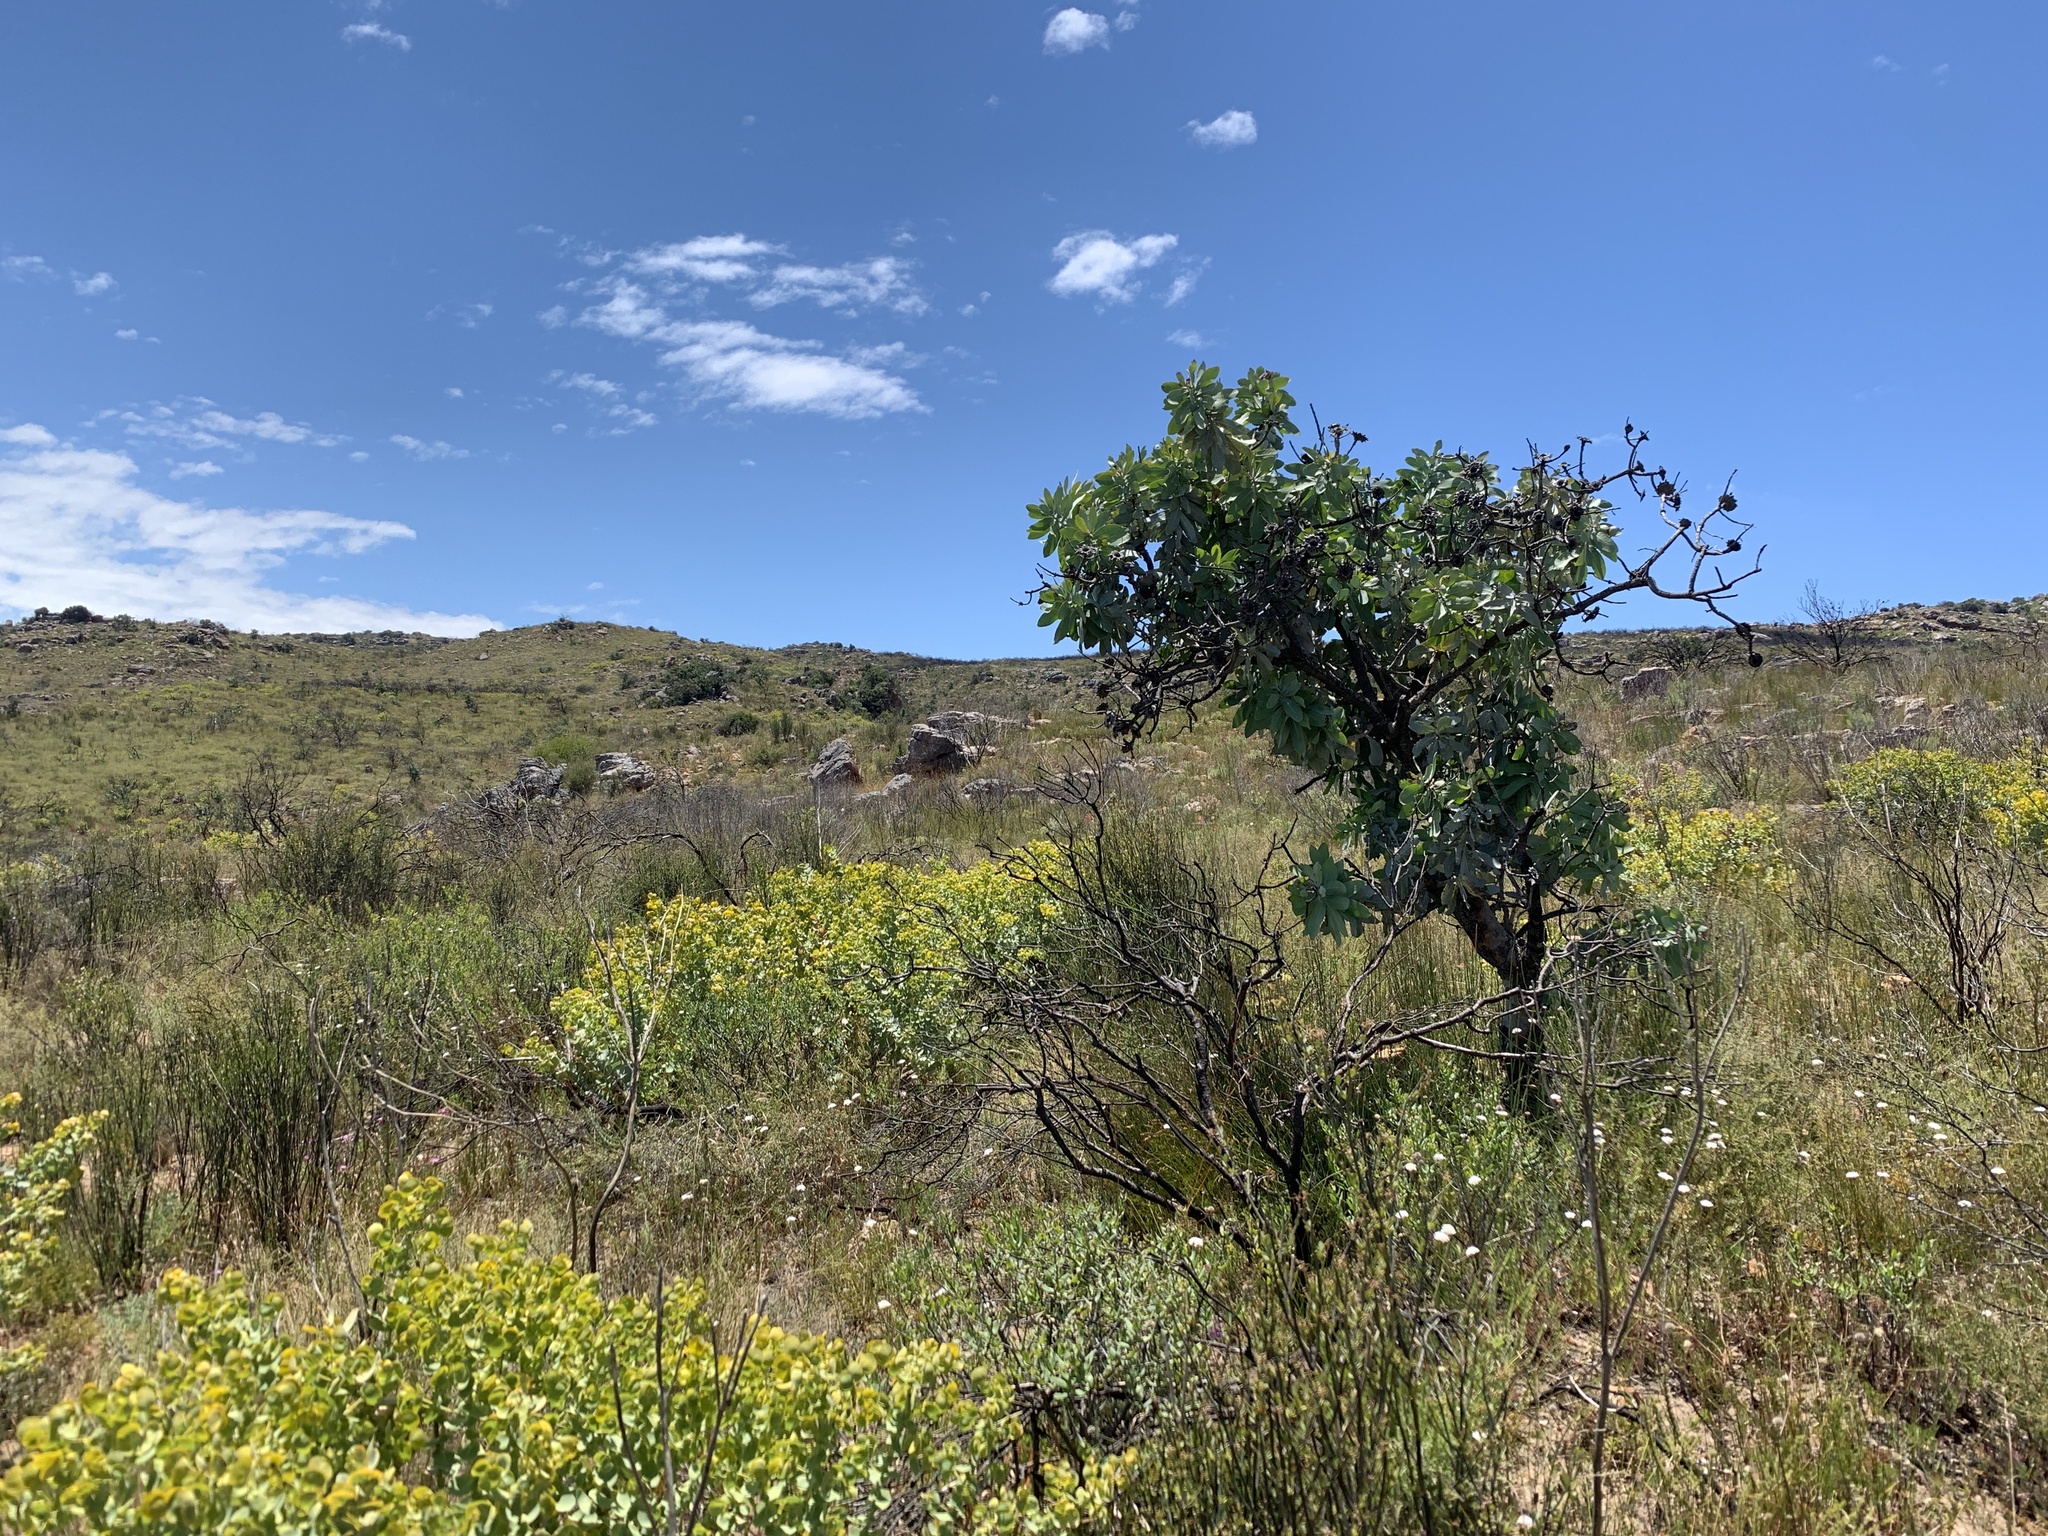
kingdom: Plantae
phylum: Tracheophyta
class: Magnoliopsida
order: Proteales
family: Proteaceae
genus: Protea
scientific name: Protea nitida
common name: Tree protea
